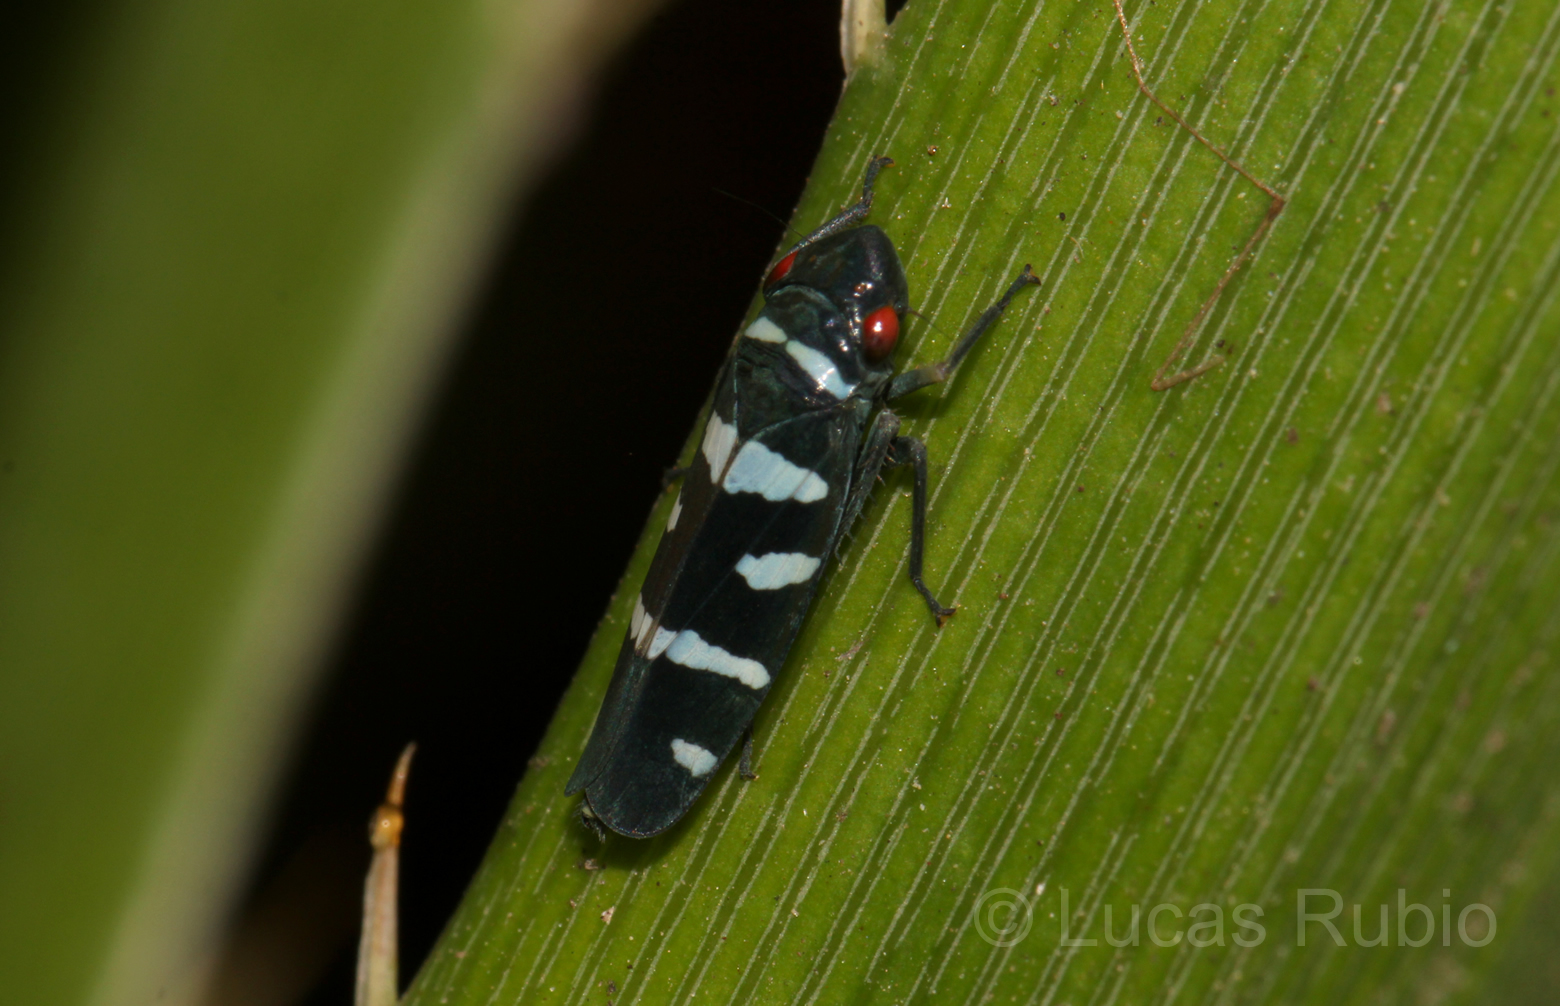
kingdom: Animalia
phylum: Arthropoda
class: Insecta
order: Hemiptera
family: Cicadellidae
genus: Balacha
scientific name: Balacha melanocephala
